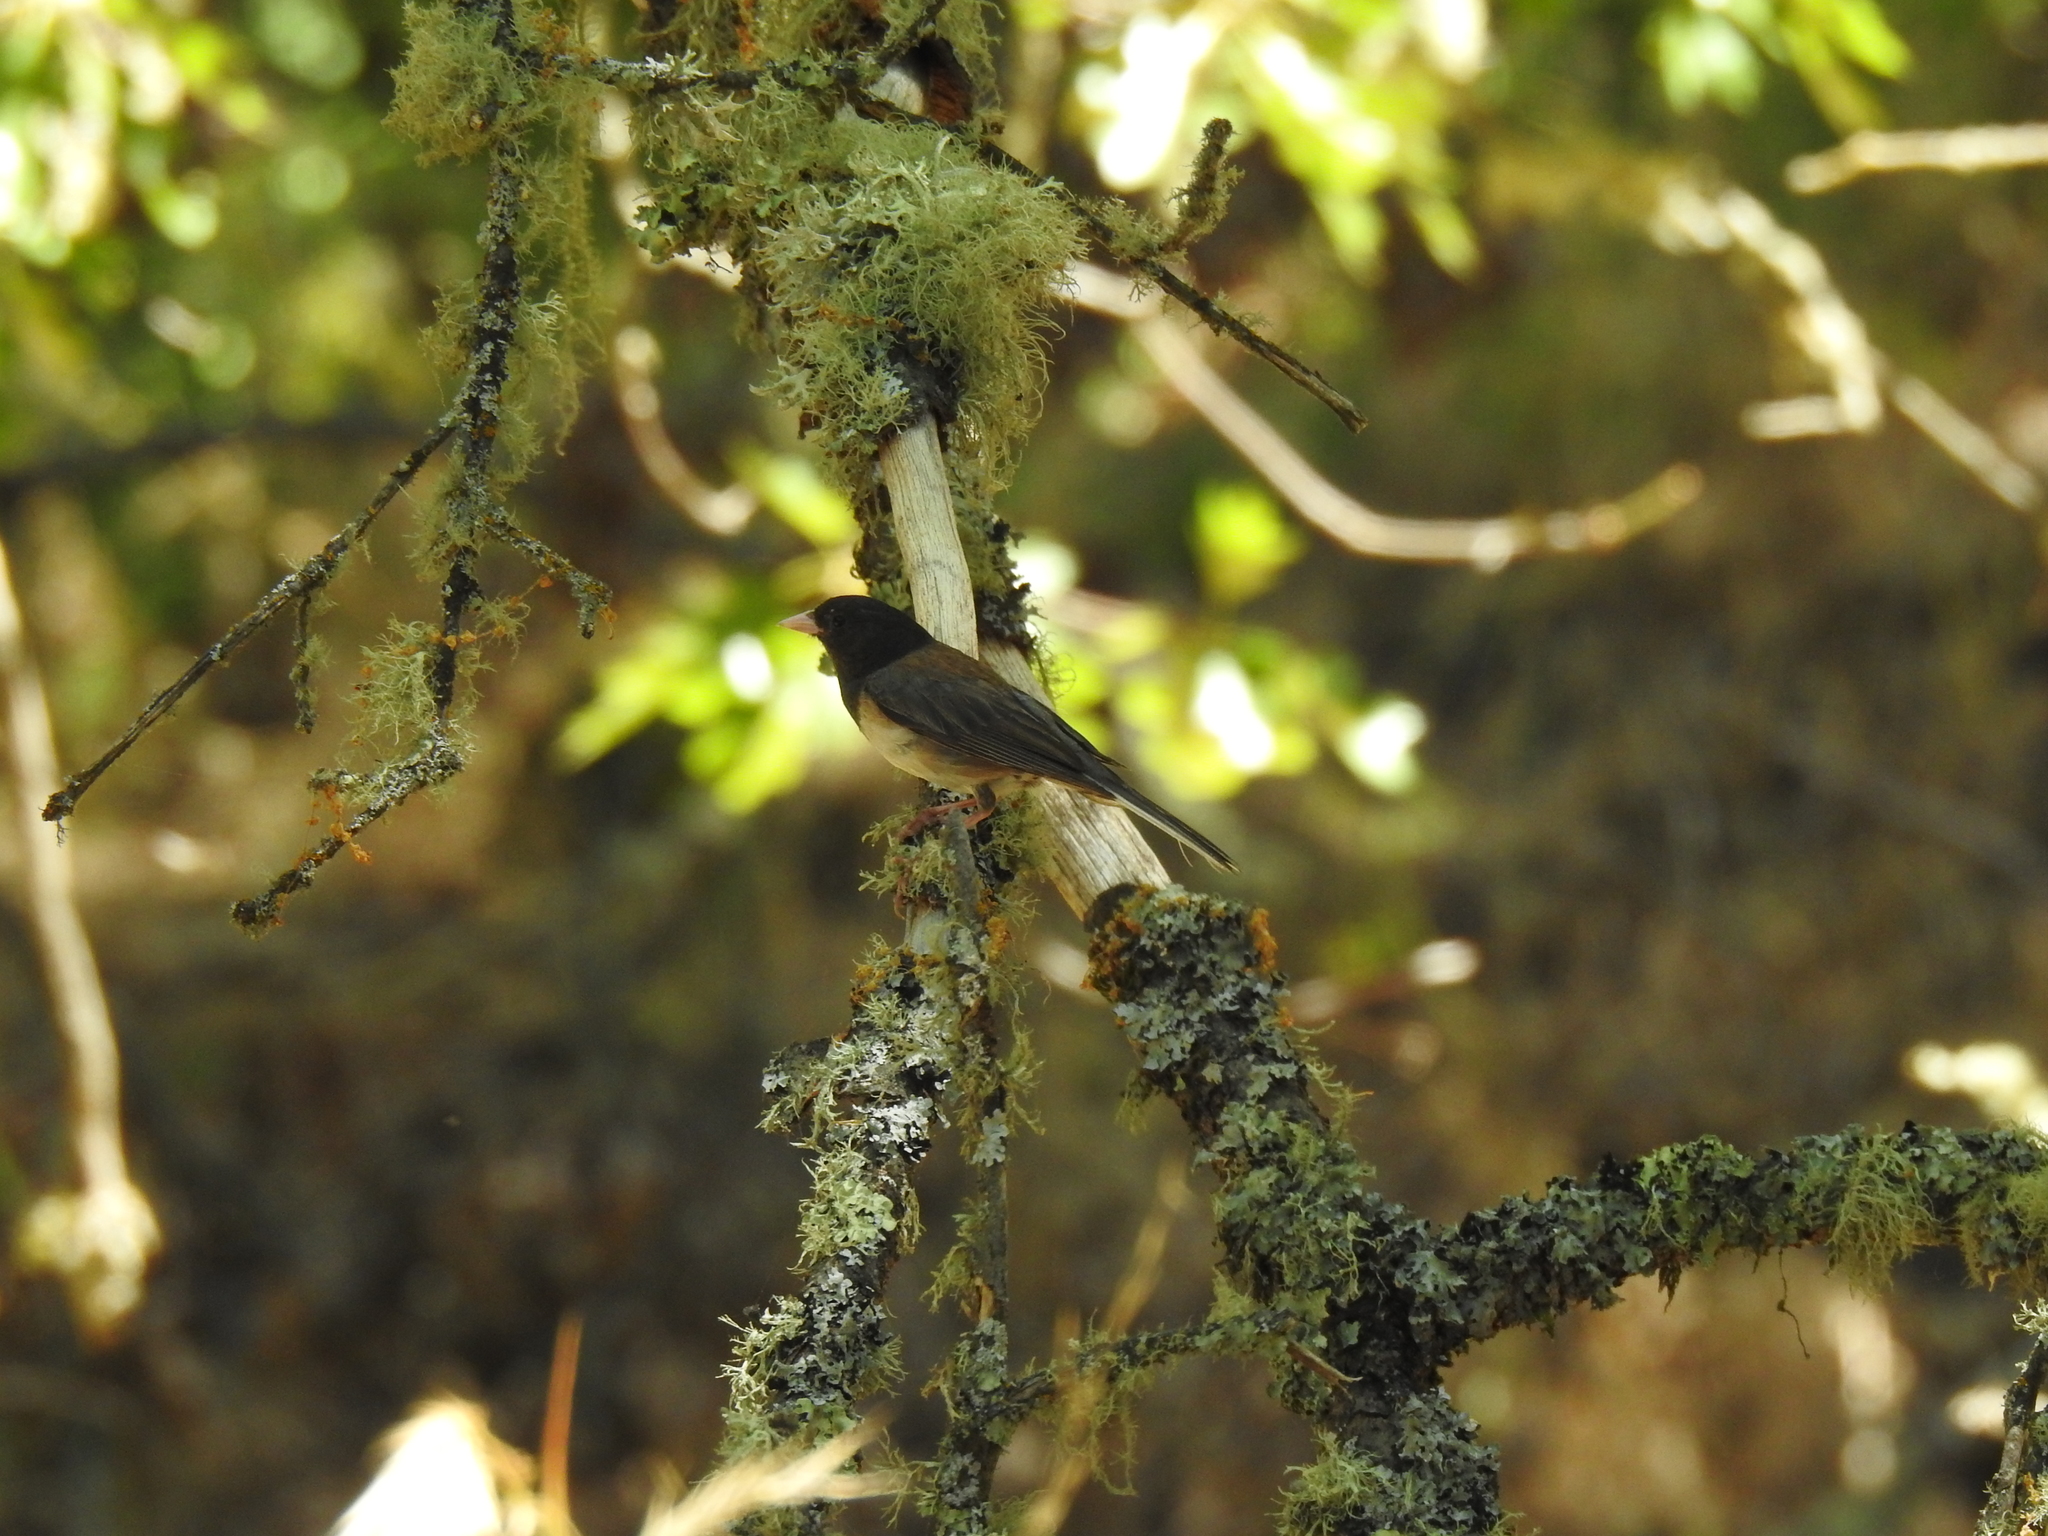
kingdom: Animalia
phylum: Chordata
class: Aves
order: Passeriformes
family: Passerellidae
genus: Junco
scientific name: Junco hyemalis
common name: Dark-eyed junco
